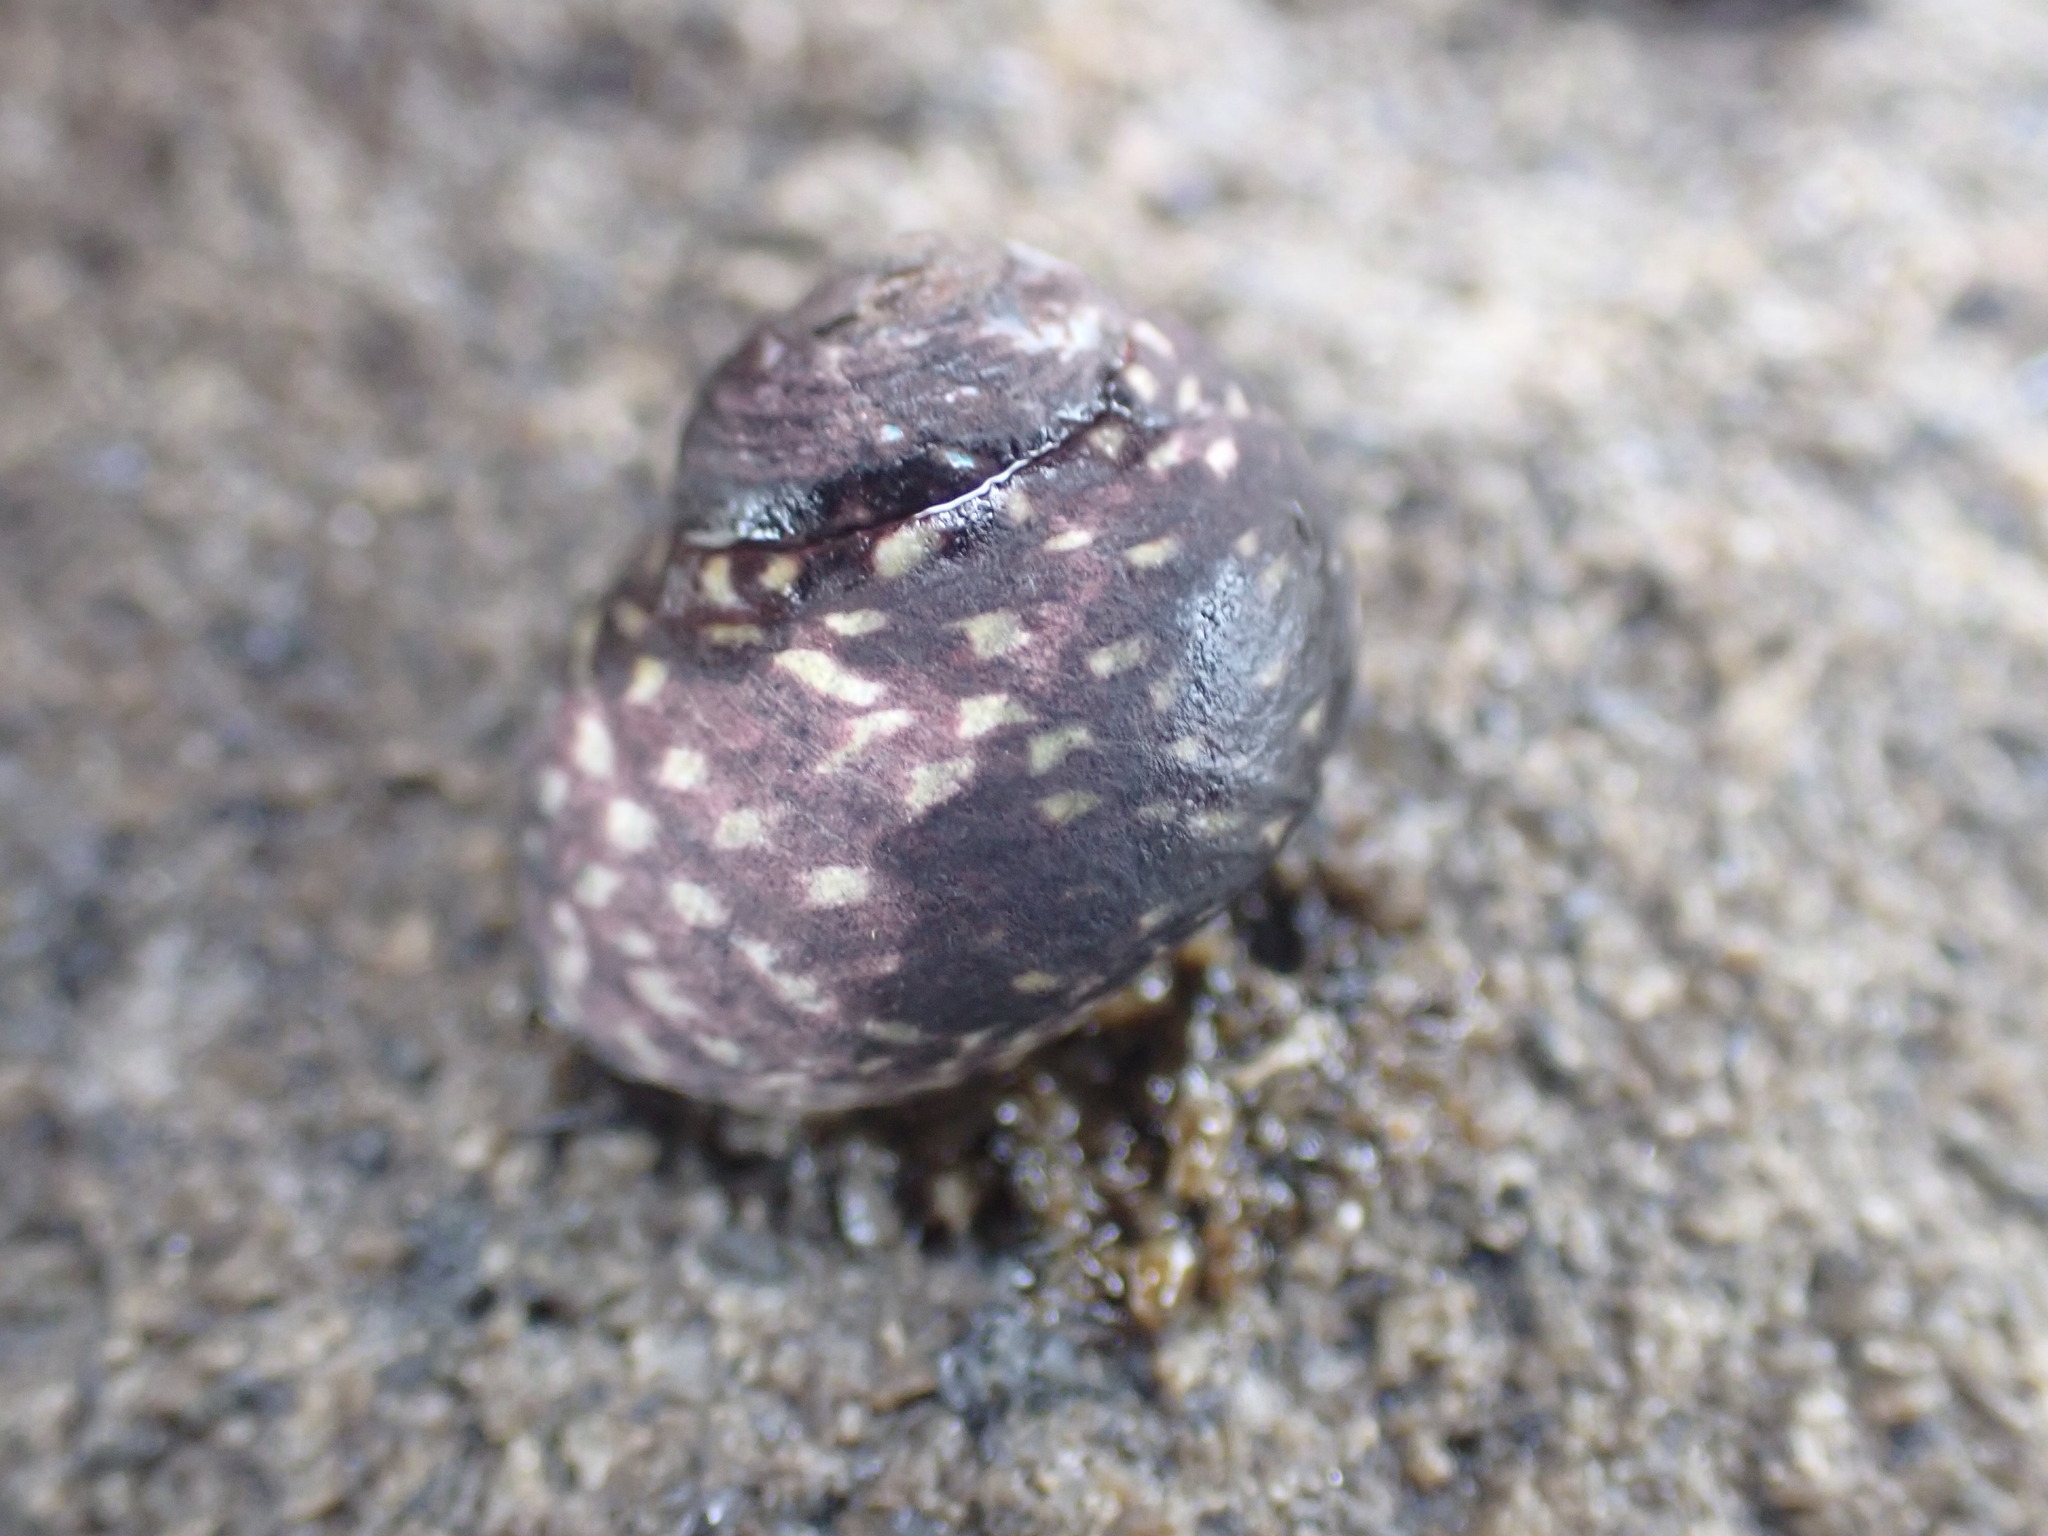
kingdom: Animalia
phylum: Mollusca
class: Gastropoda
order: Trochida
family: Trochidae
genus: Diloma
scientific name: Diloma aridum
